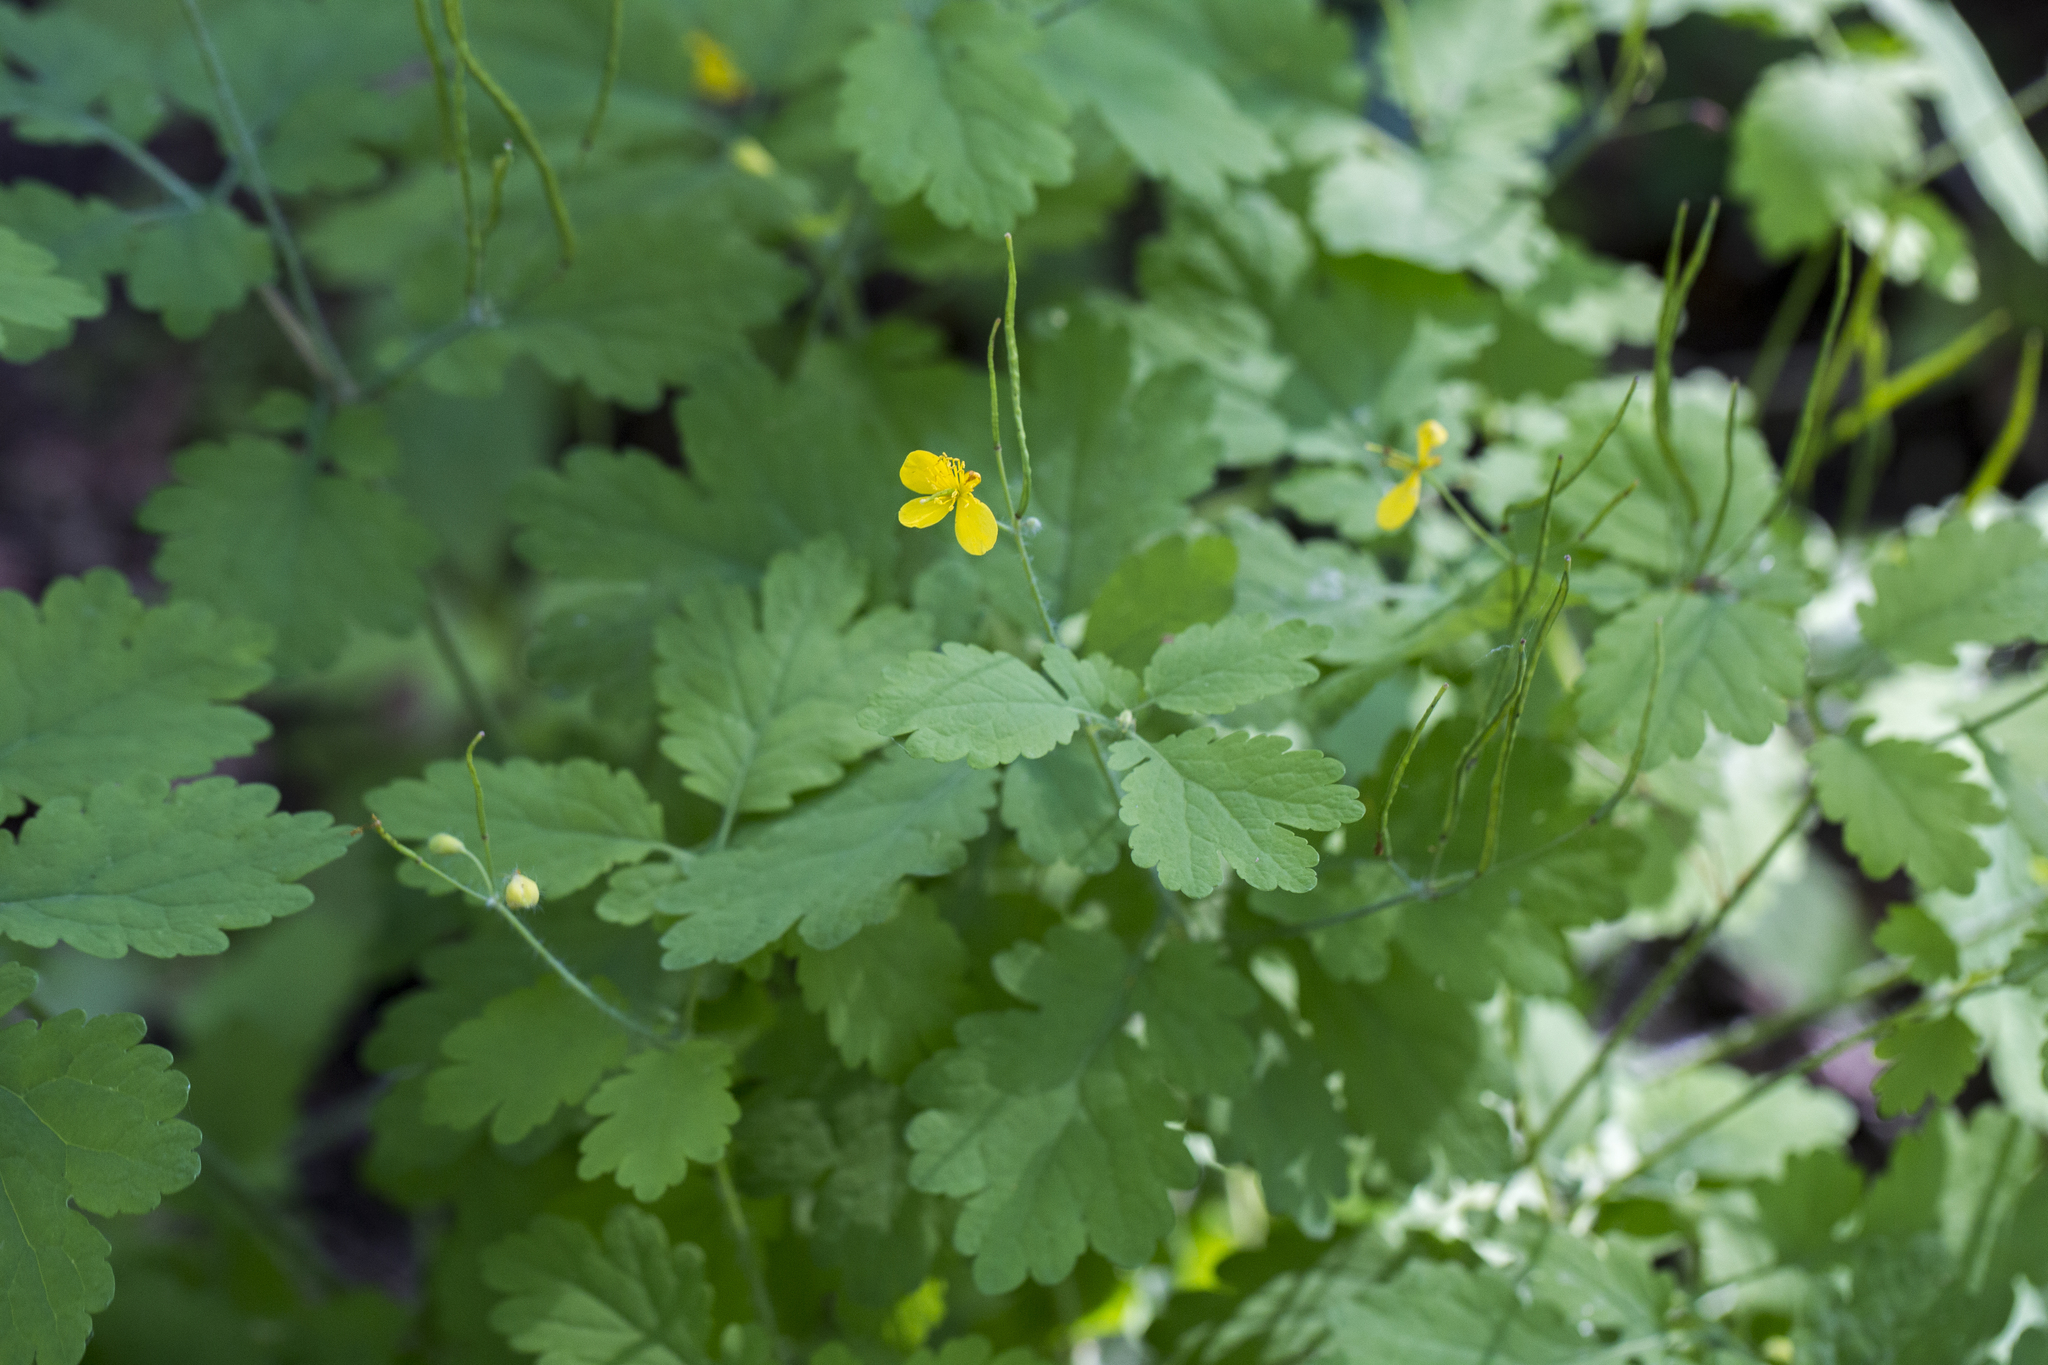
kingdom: Plantae
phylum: Tracheophyta
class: Magnoliopsida
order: Ranunculales
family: Papaveraceae
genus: Chelidonium
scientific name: Chelidonium majus
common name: Greater celandine
